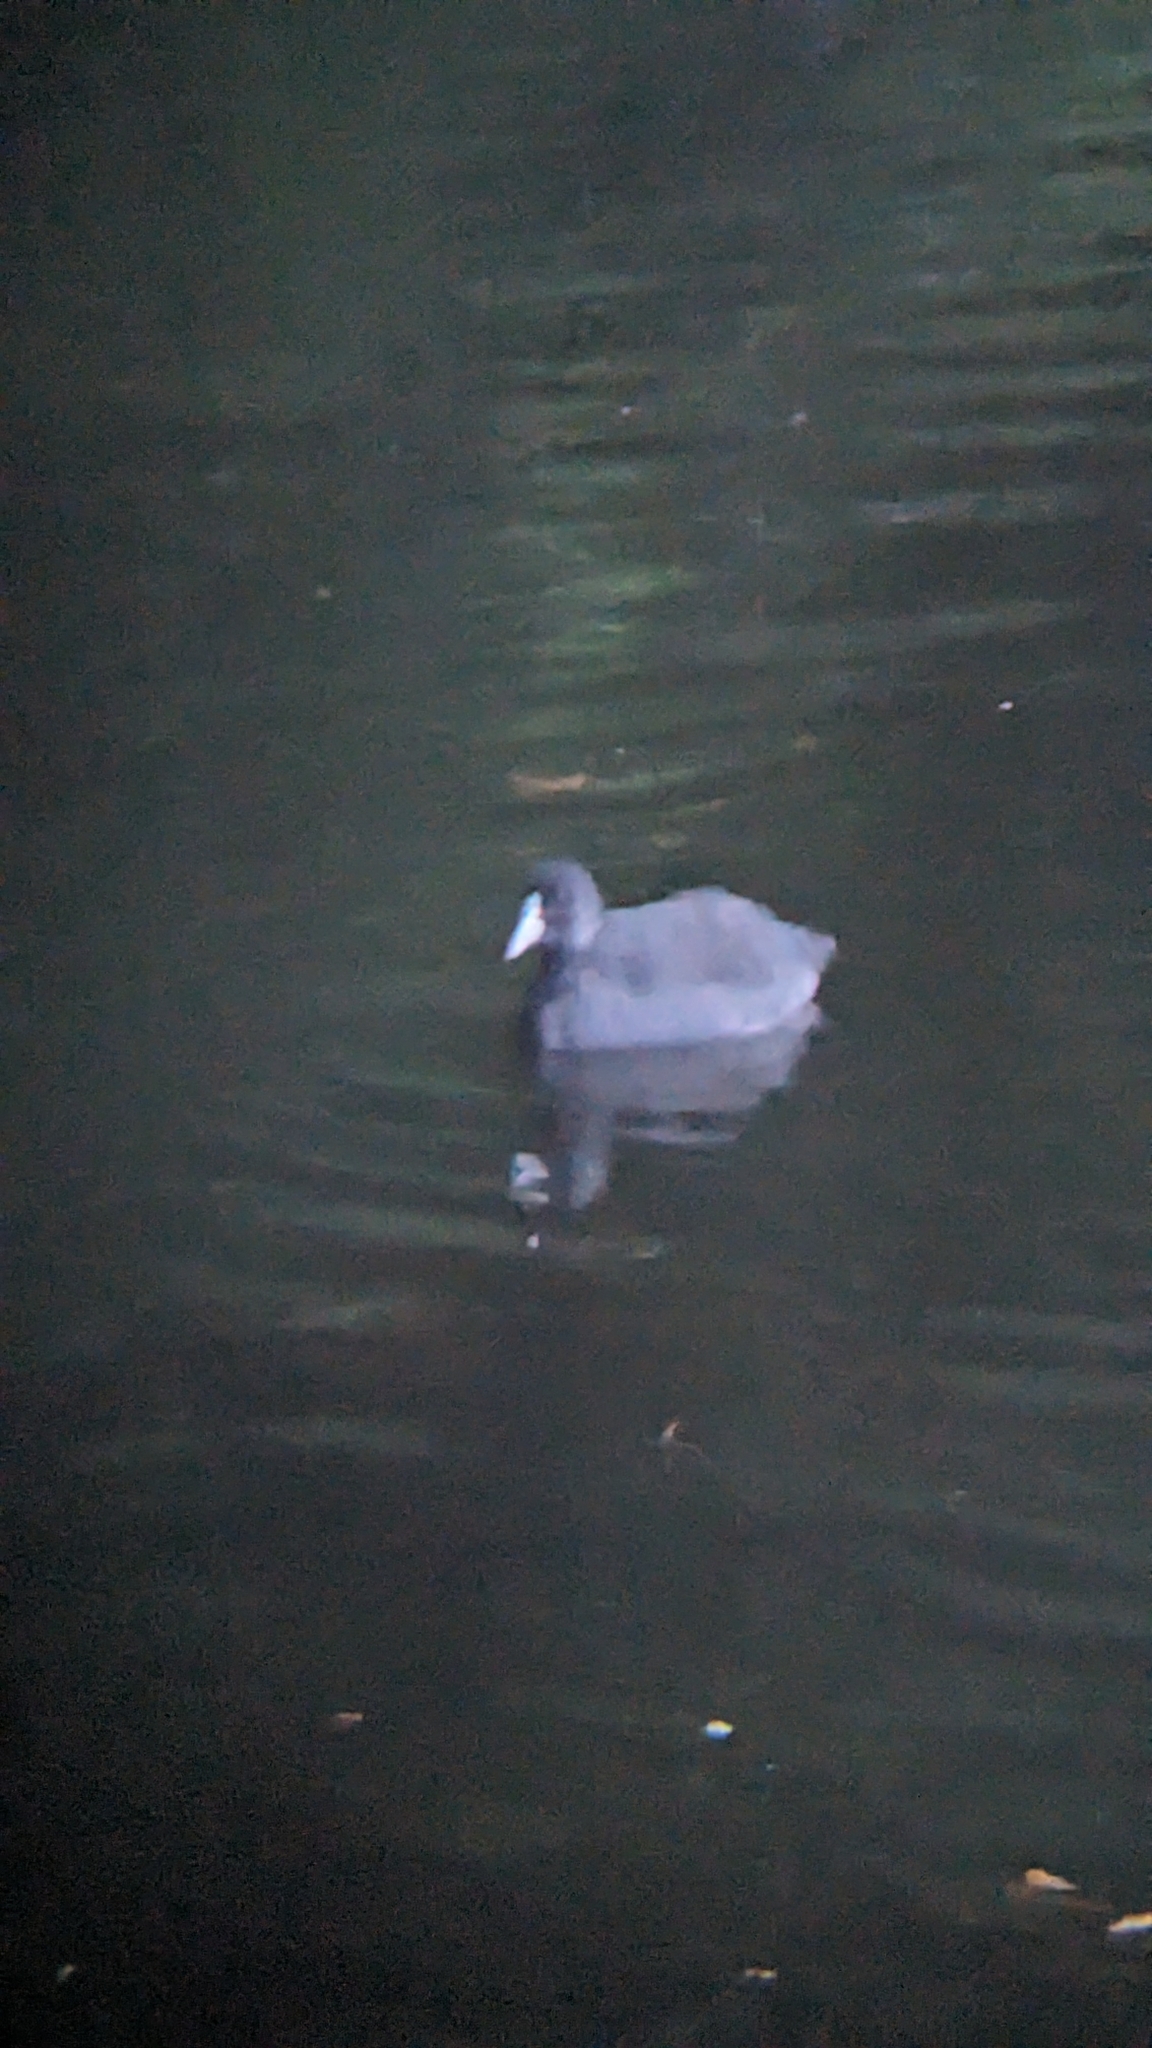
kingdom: Animalia
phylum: Chordata
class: Aves
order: Gruiformes
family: Rallidae
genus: Fulica
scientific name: Fulica atra
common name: Eurasian coot
